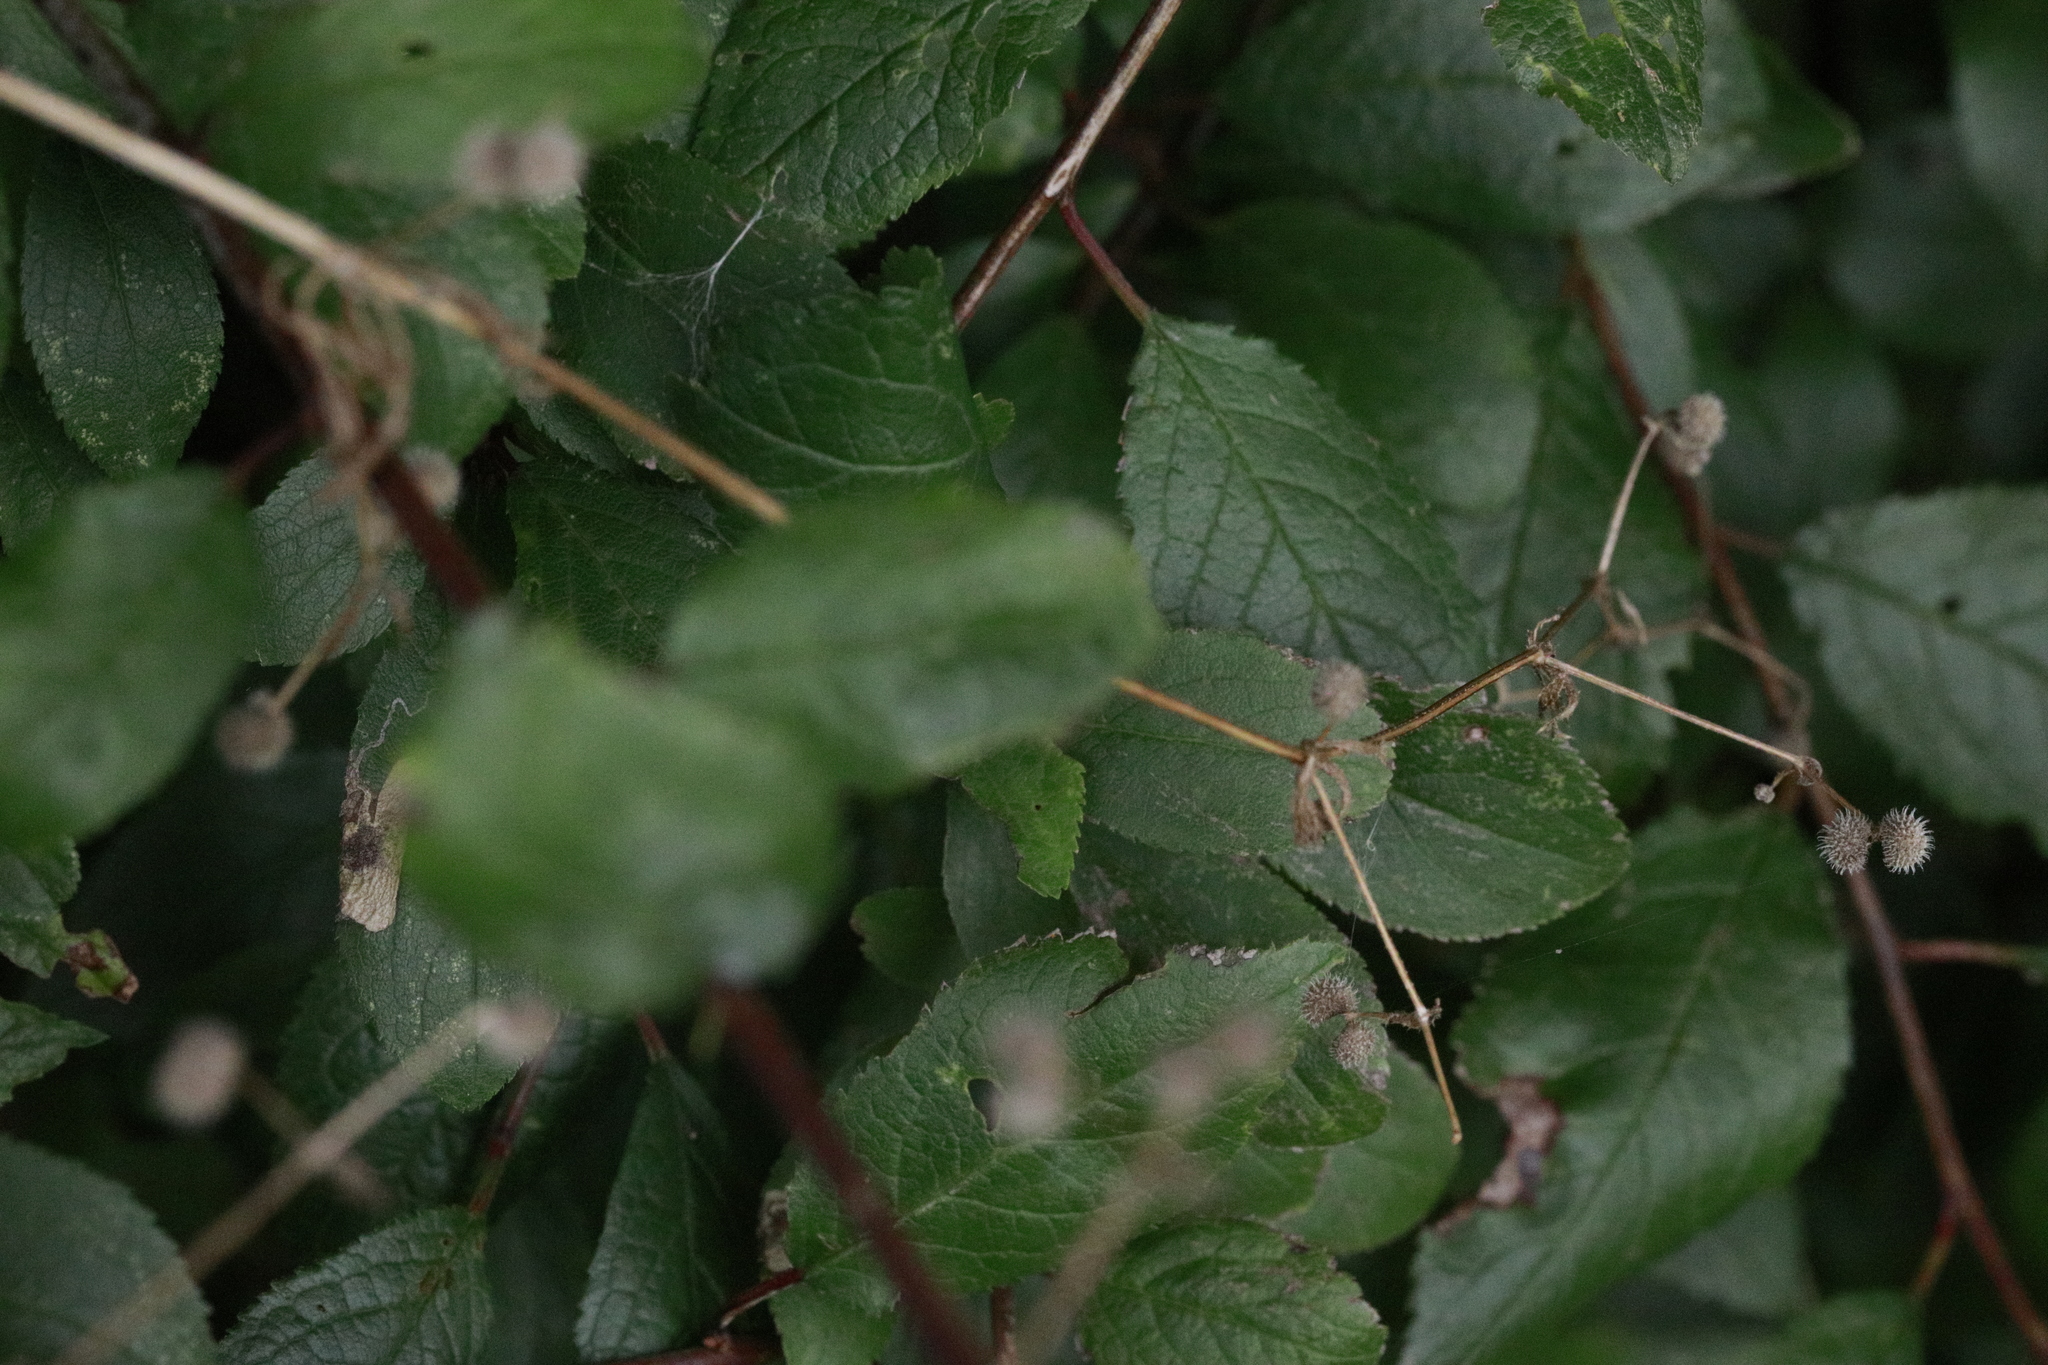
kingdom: Plantae
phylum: Tracheophyta
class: Magnoliopsida
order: Gentianales
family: Rubiaceae
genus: Galium
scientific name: Galium aparine
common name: Cleavers
